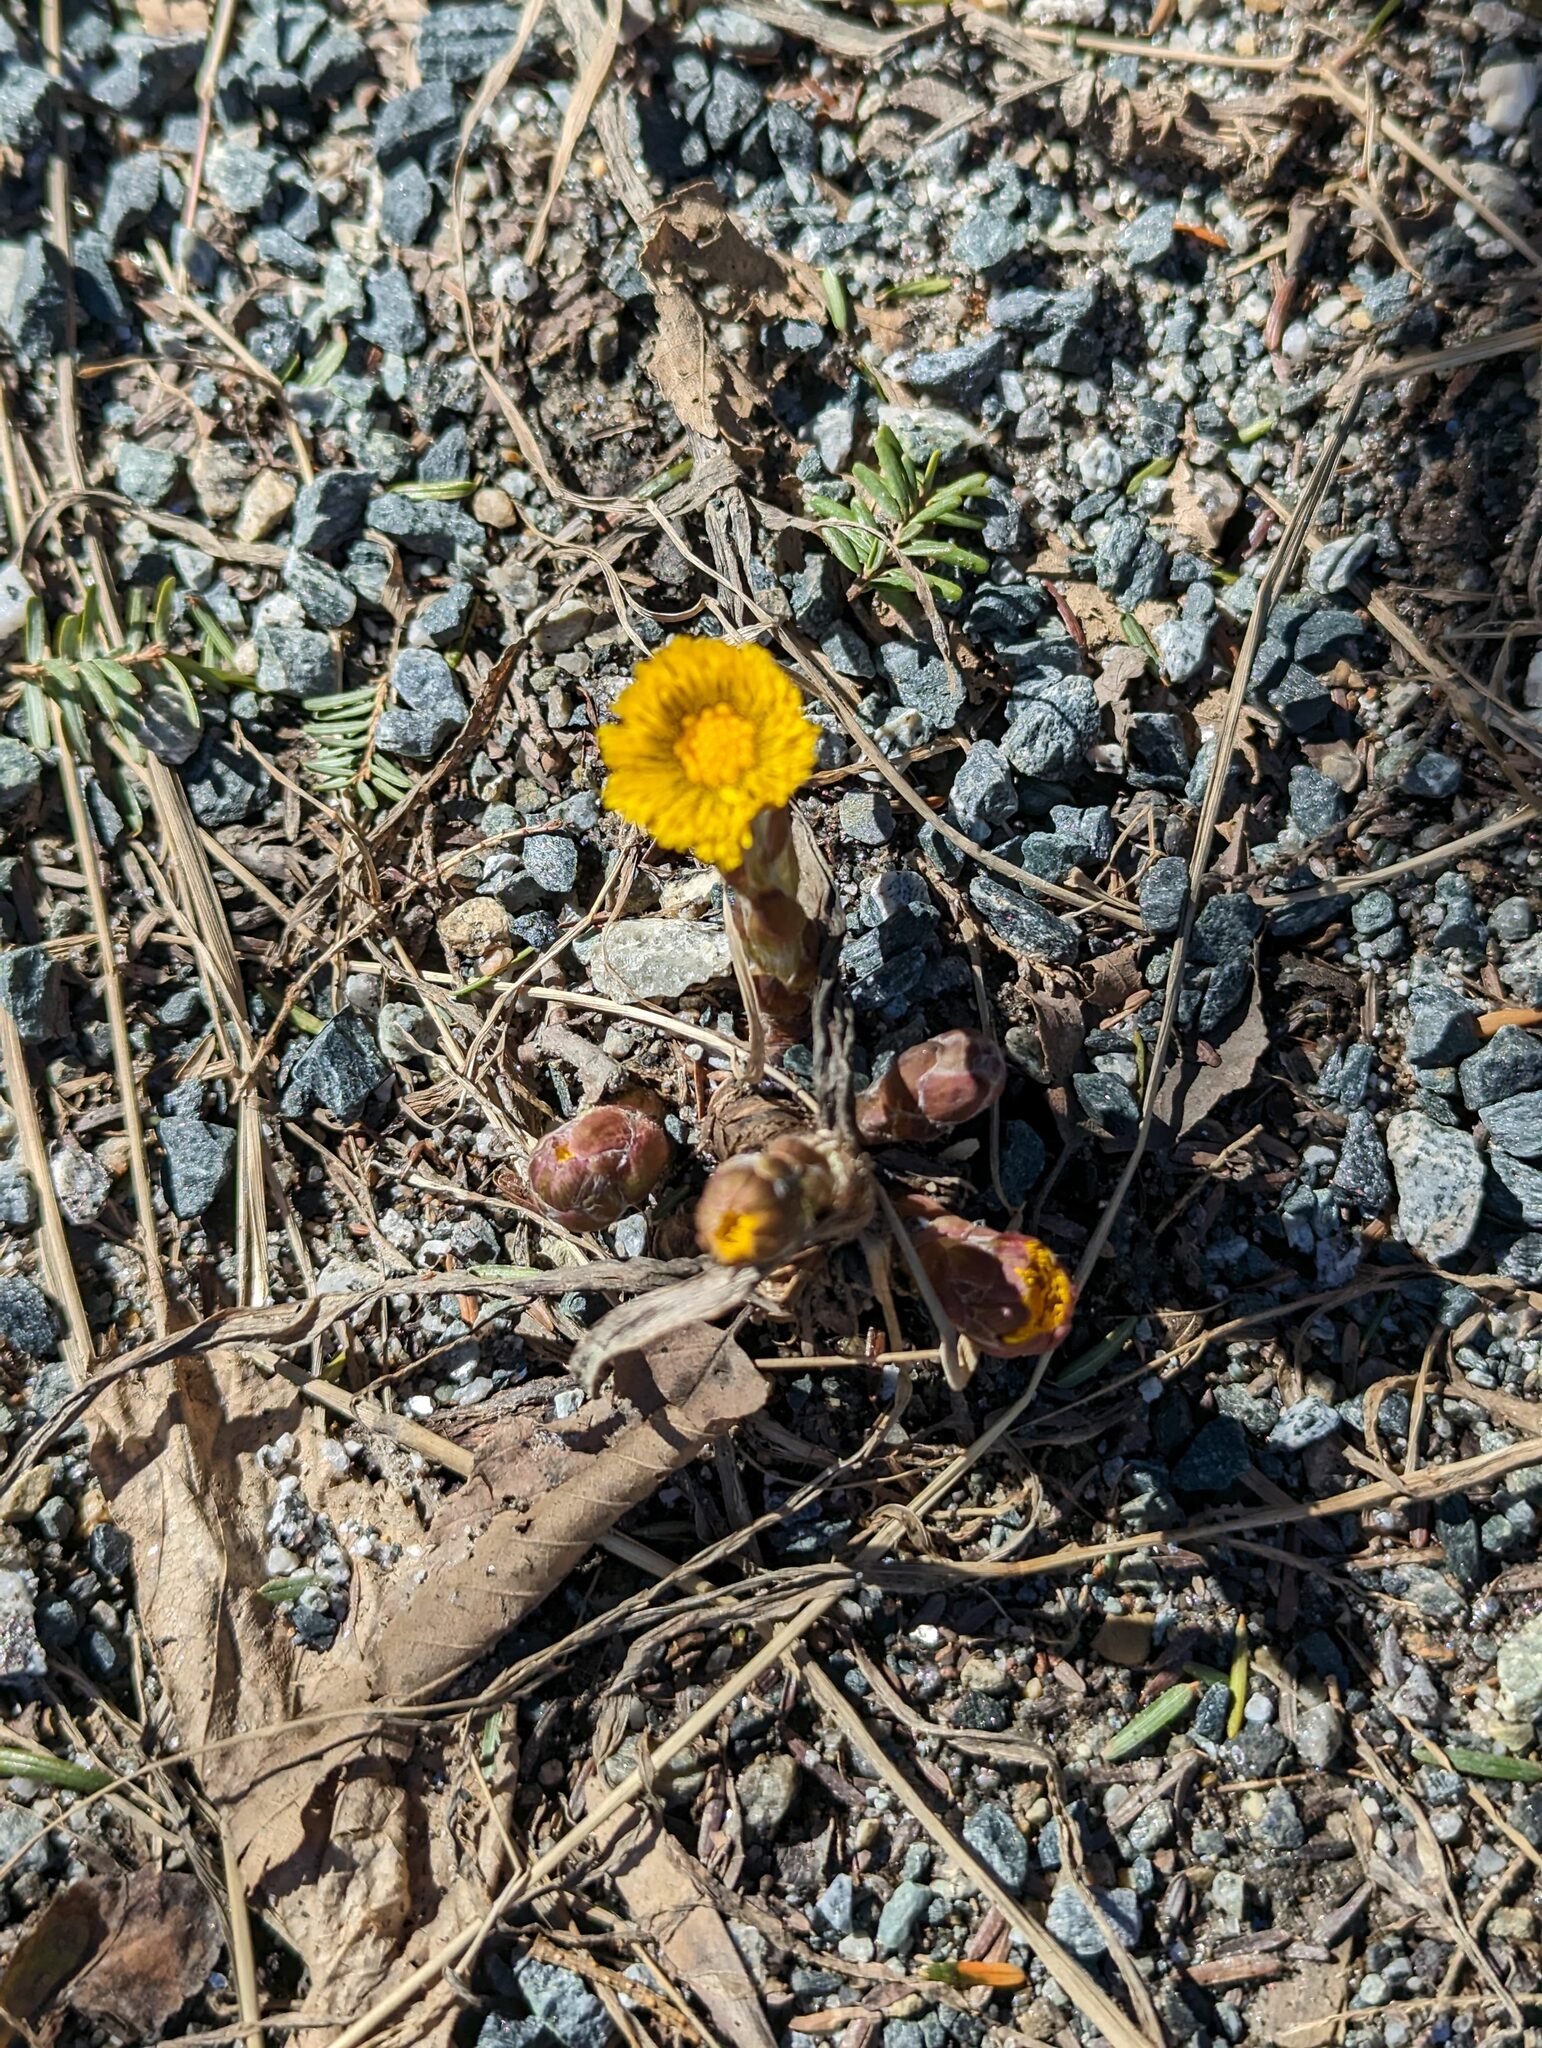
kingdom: Plantae
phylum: Tracheophyta
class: Magnoliopsida
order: Asterales
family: Asteraceae
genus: Tussilago
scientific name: Tussilago farfara
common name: Coltsfoot
